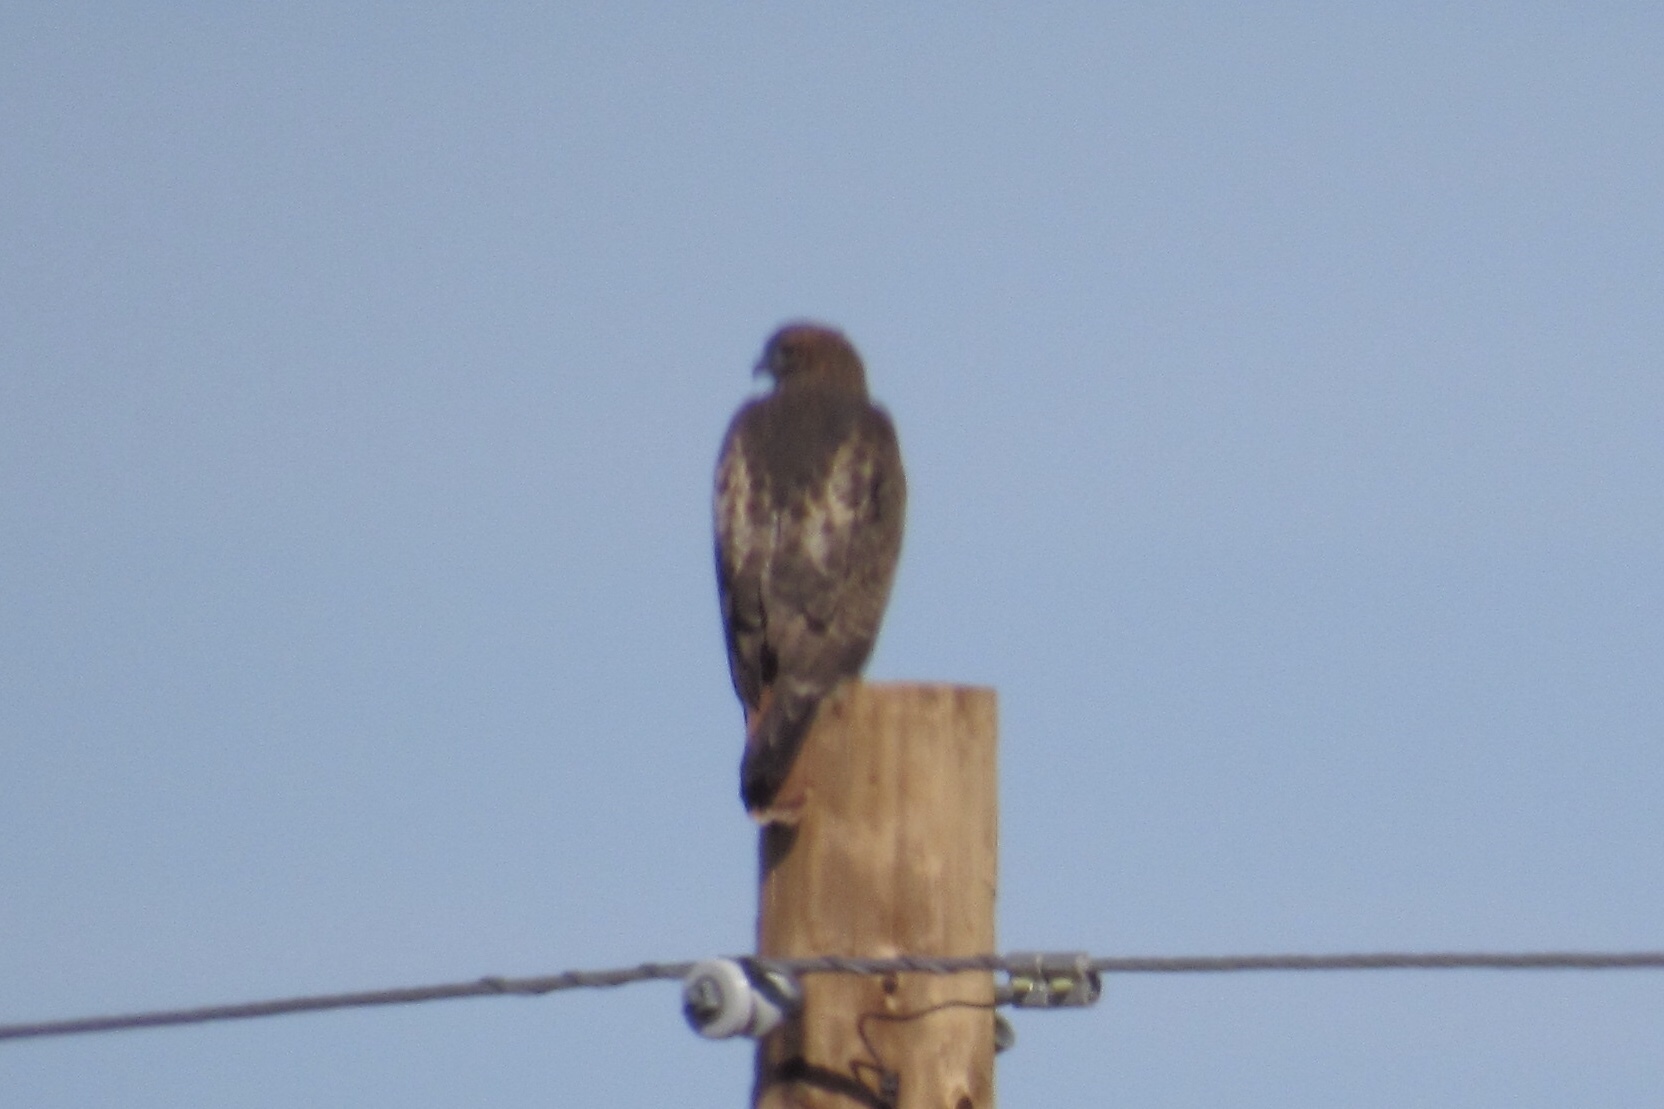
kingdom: Animalia
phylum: Chordata
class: Aves
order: Accipitriformes
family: Accipitridae
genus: Buteo
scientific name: Buteo jamaicensis
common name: Red-tailed hawk
